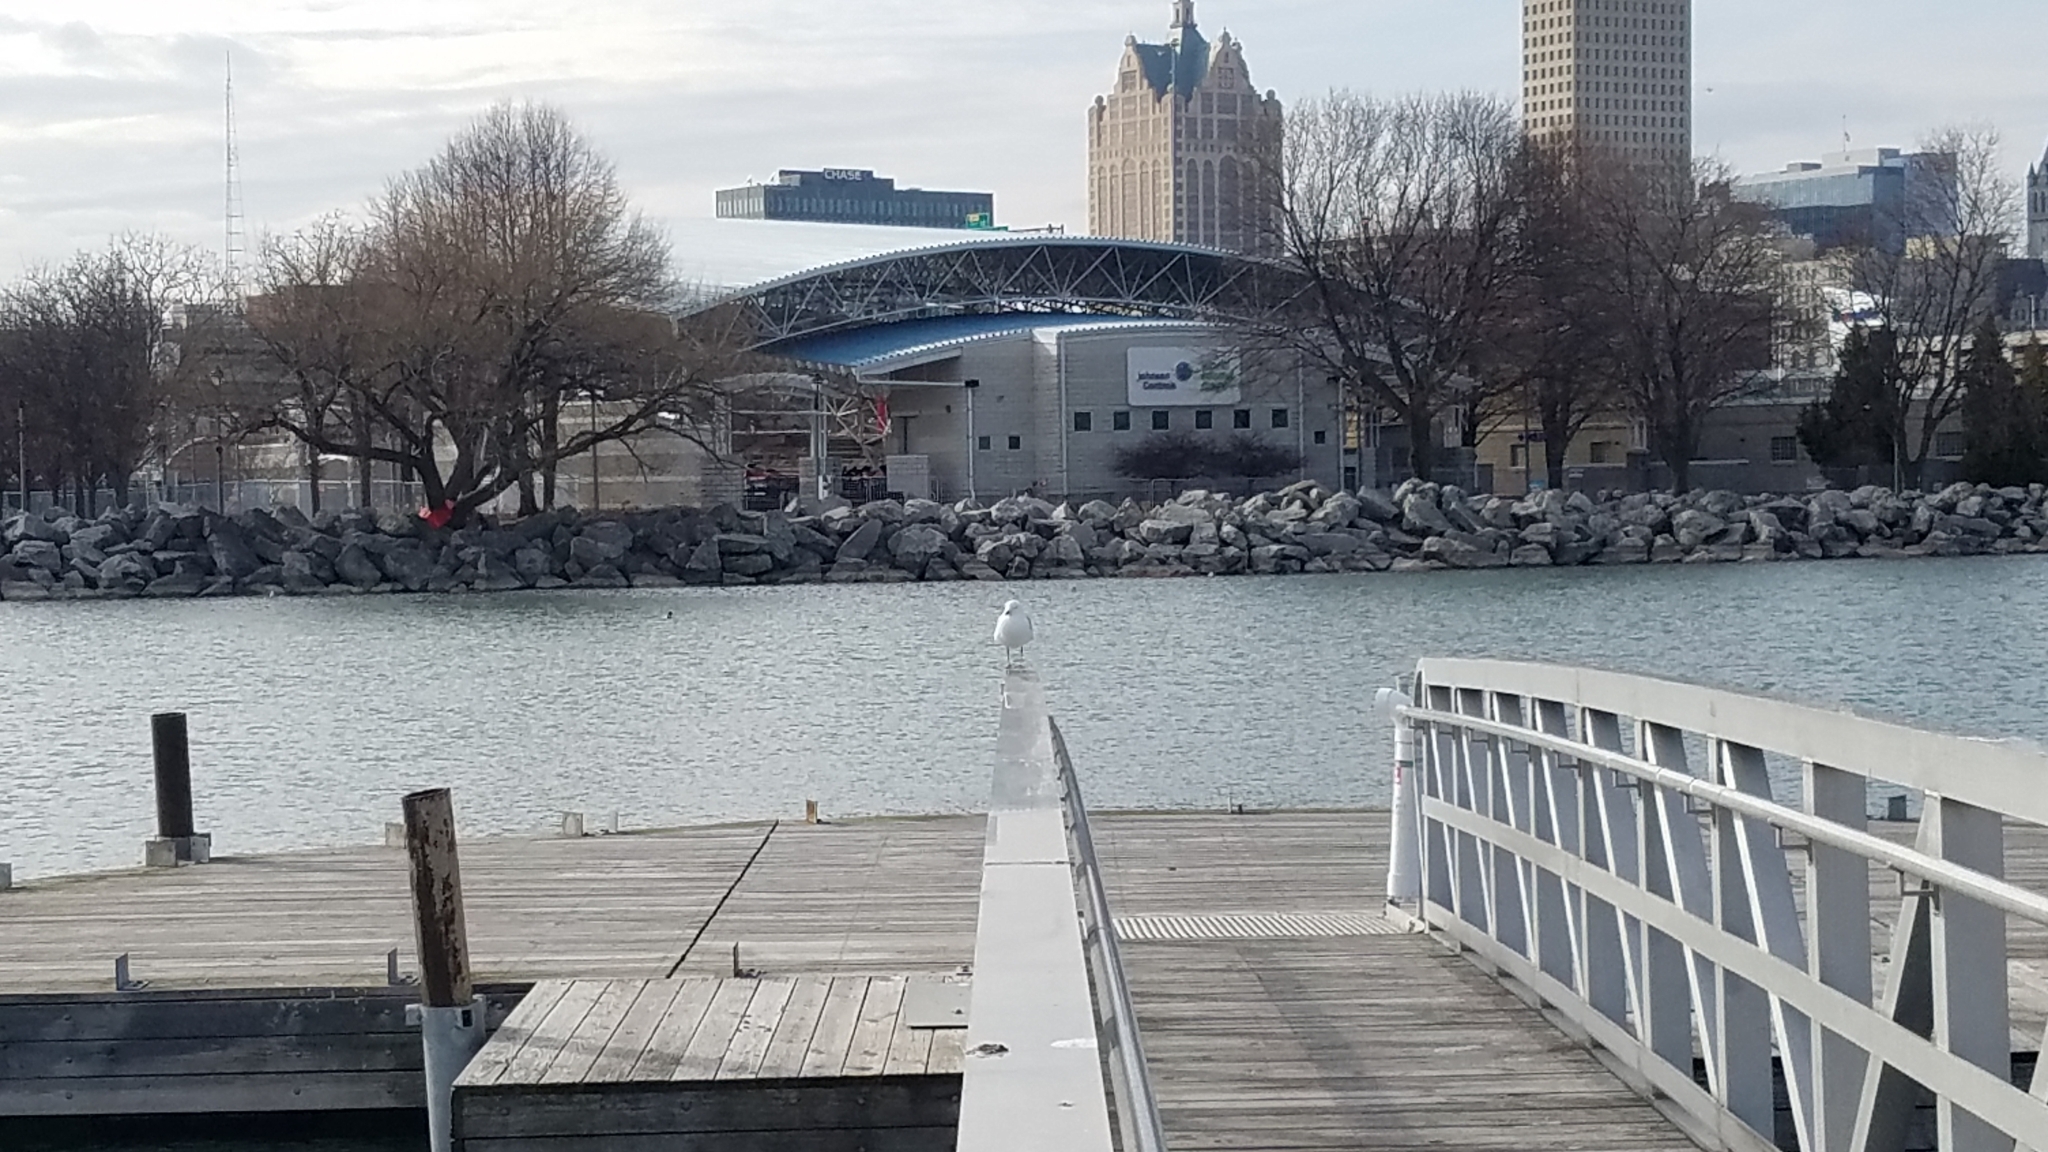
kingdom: Animalia
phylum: Chordata
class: Aves
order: Charadriiformes
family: Laridae
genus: Larus
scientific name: Larus delawarensis
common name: Ring-billed gull
